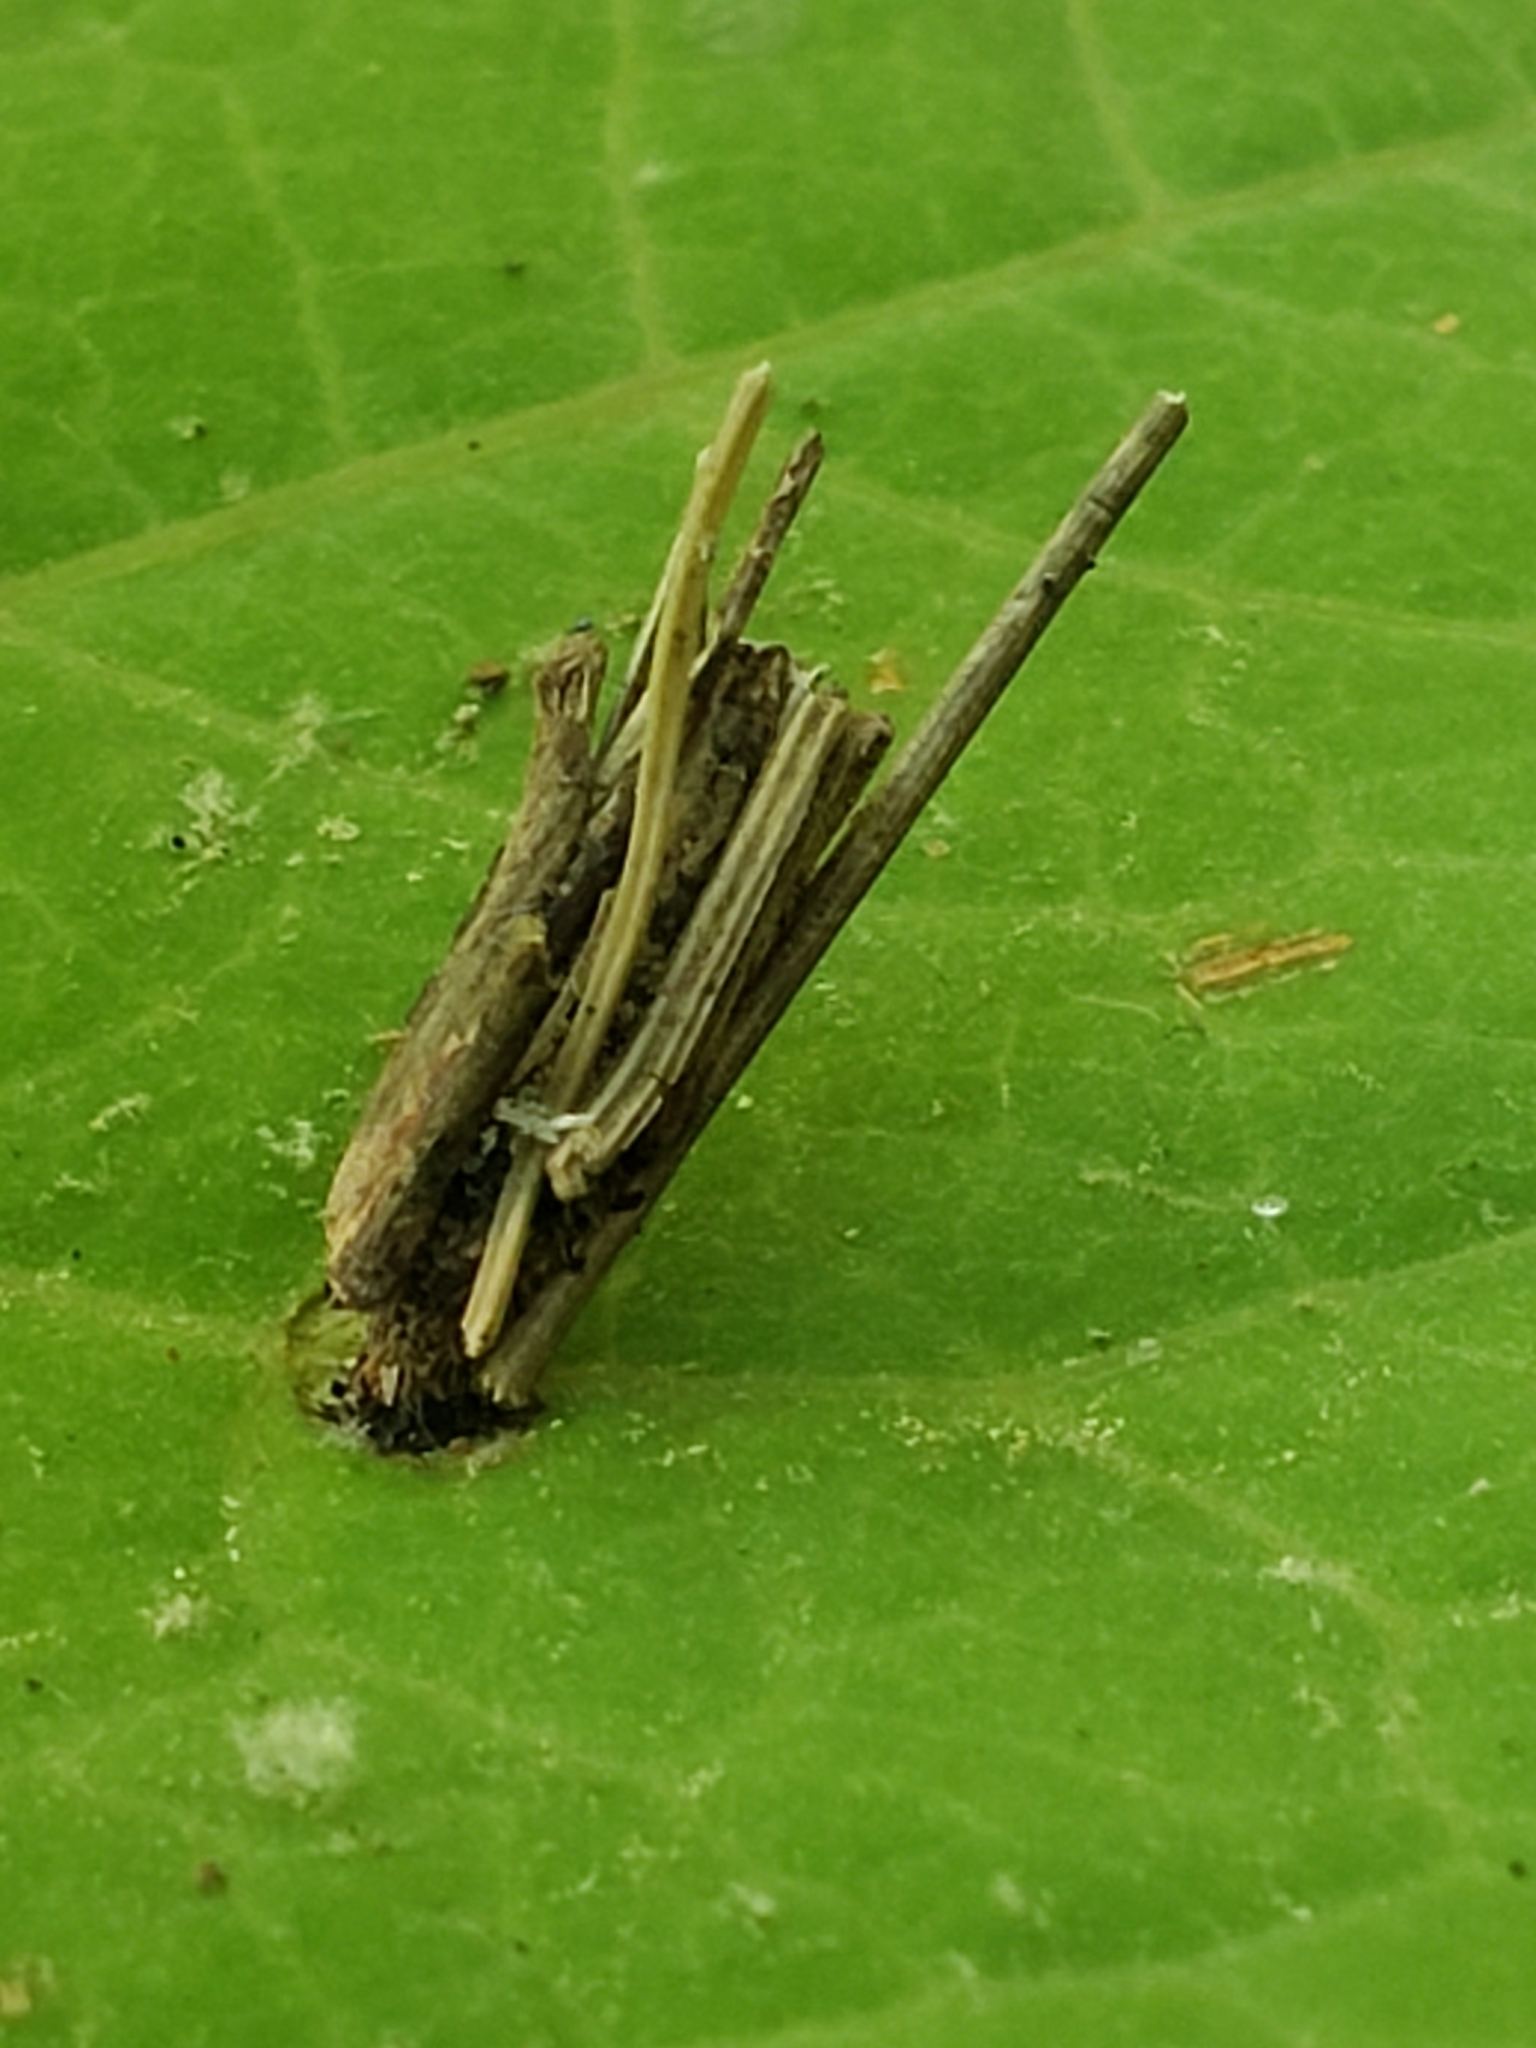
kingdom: Animalia
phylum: Arthropoda
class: Insecta
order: Lepidoptera
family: Psychidae
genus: Psyche
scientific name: Psyche casta
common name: Common sweep
